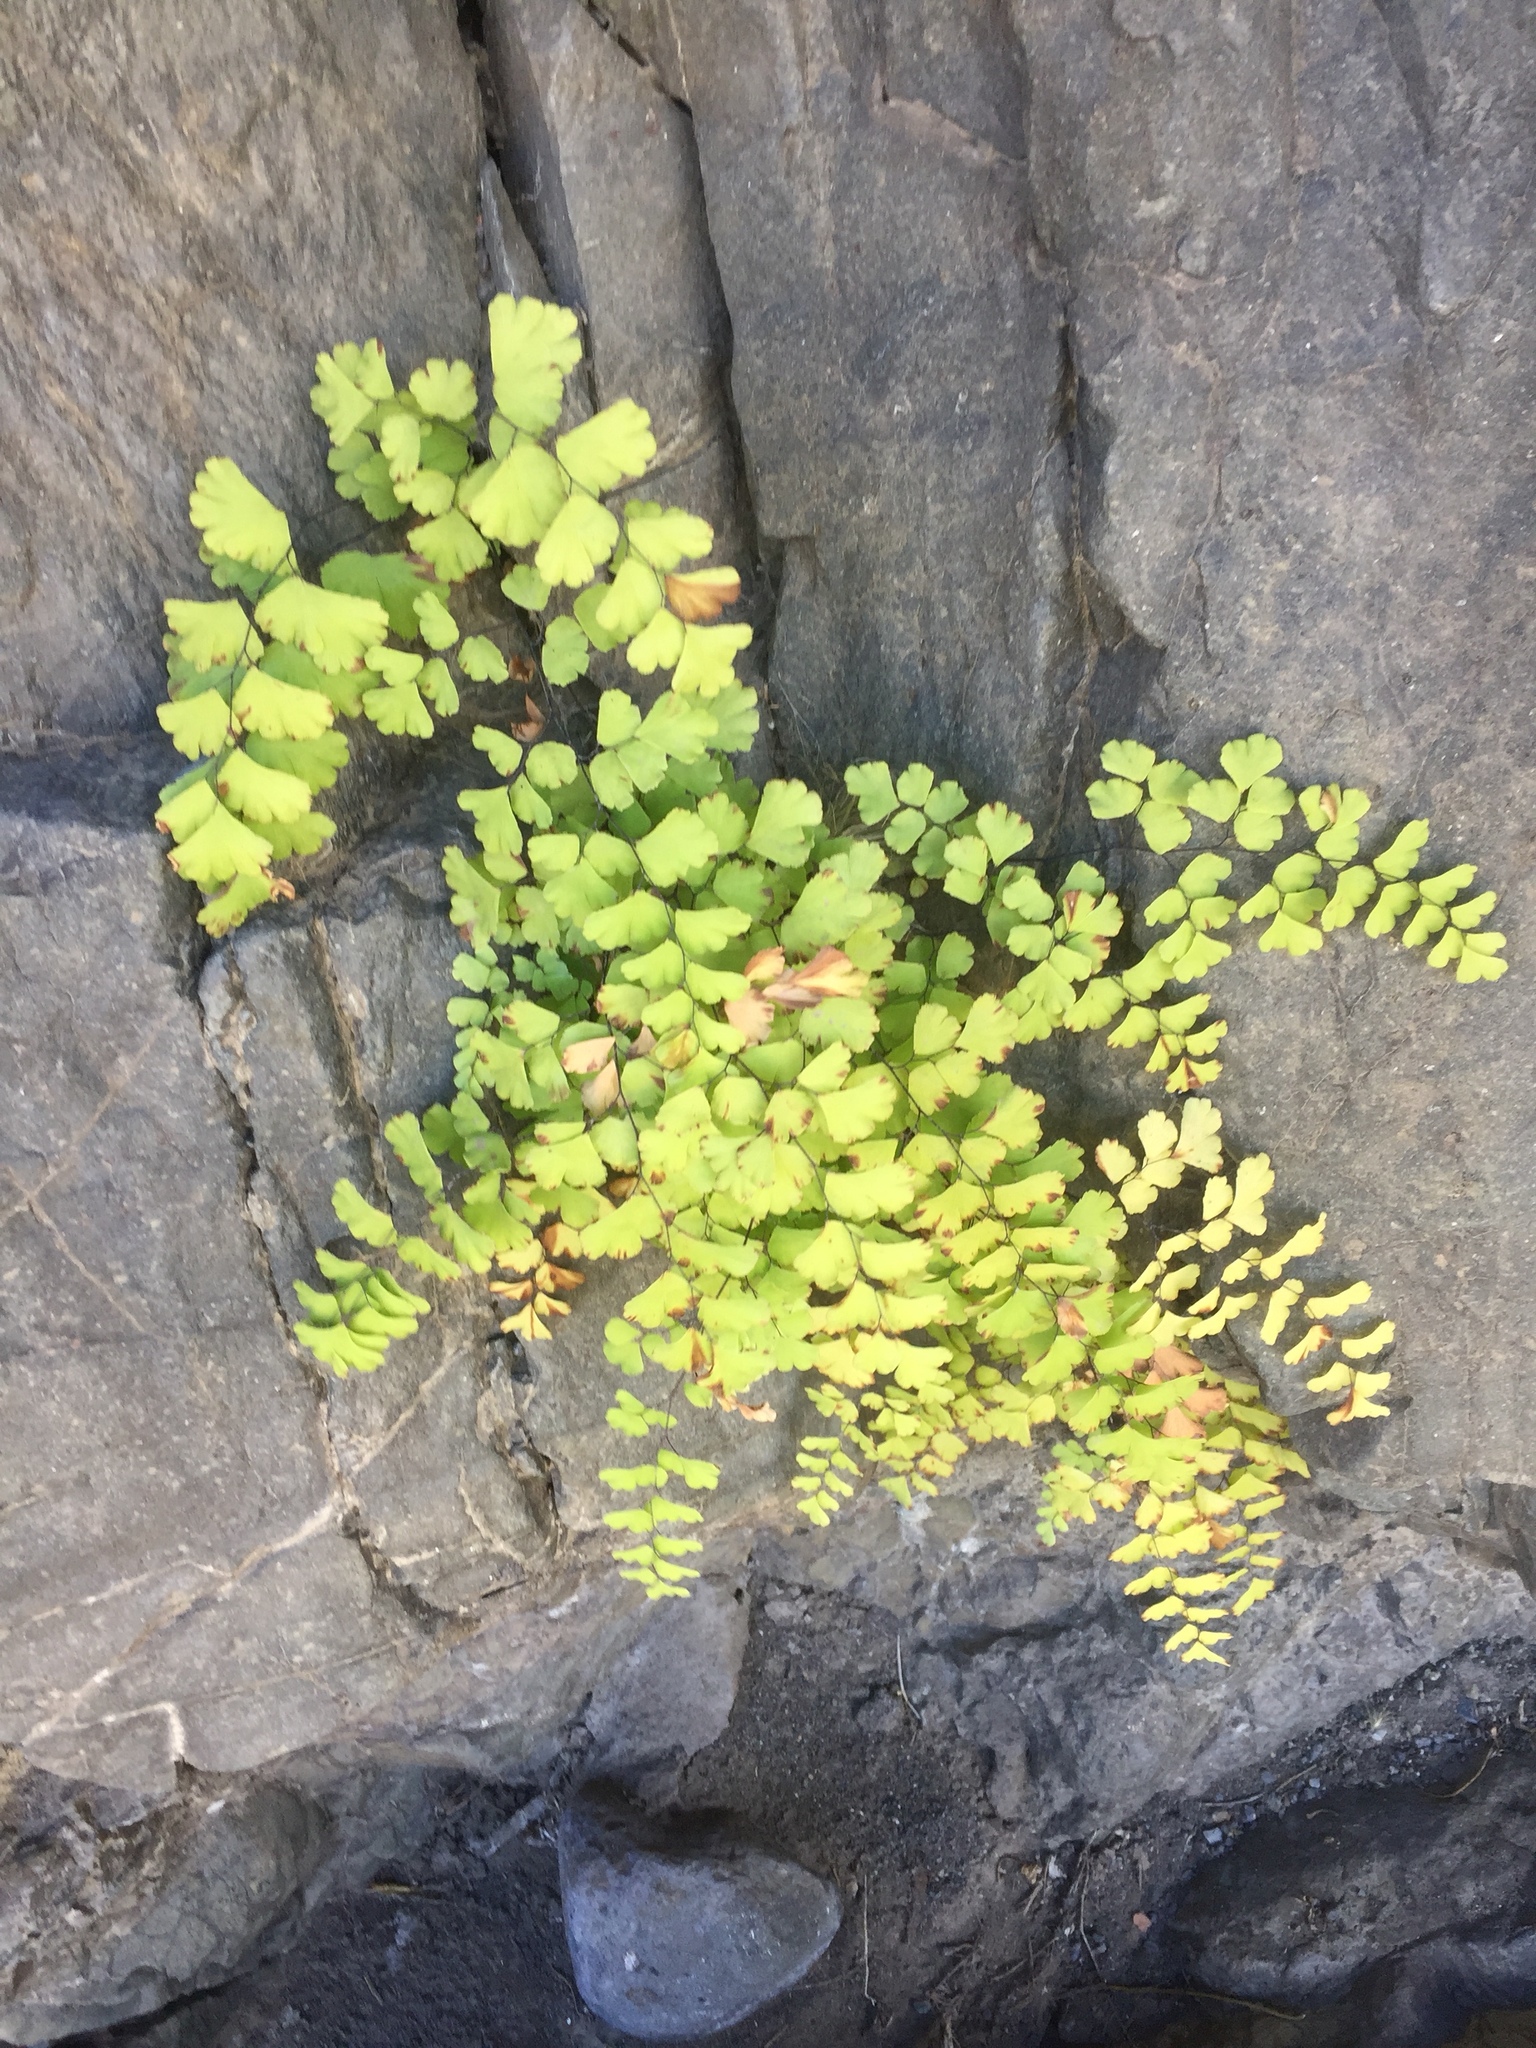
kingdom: Plantae
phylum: Tracheophyta
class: Polypodiopsida
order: Polypodiales
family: Pteridaceae
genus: Adiantum
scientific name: Adiantum capillus-veneris
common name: Maidenhair fern
